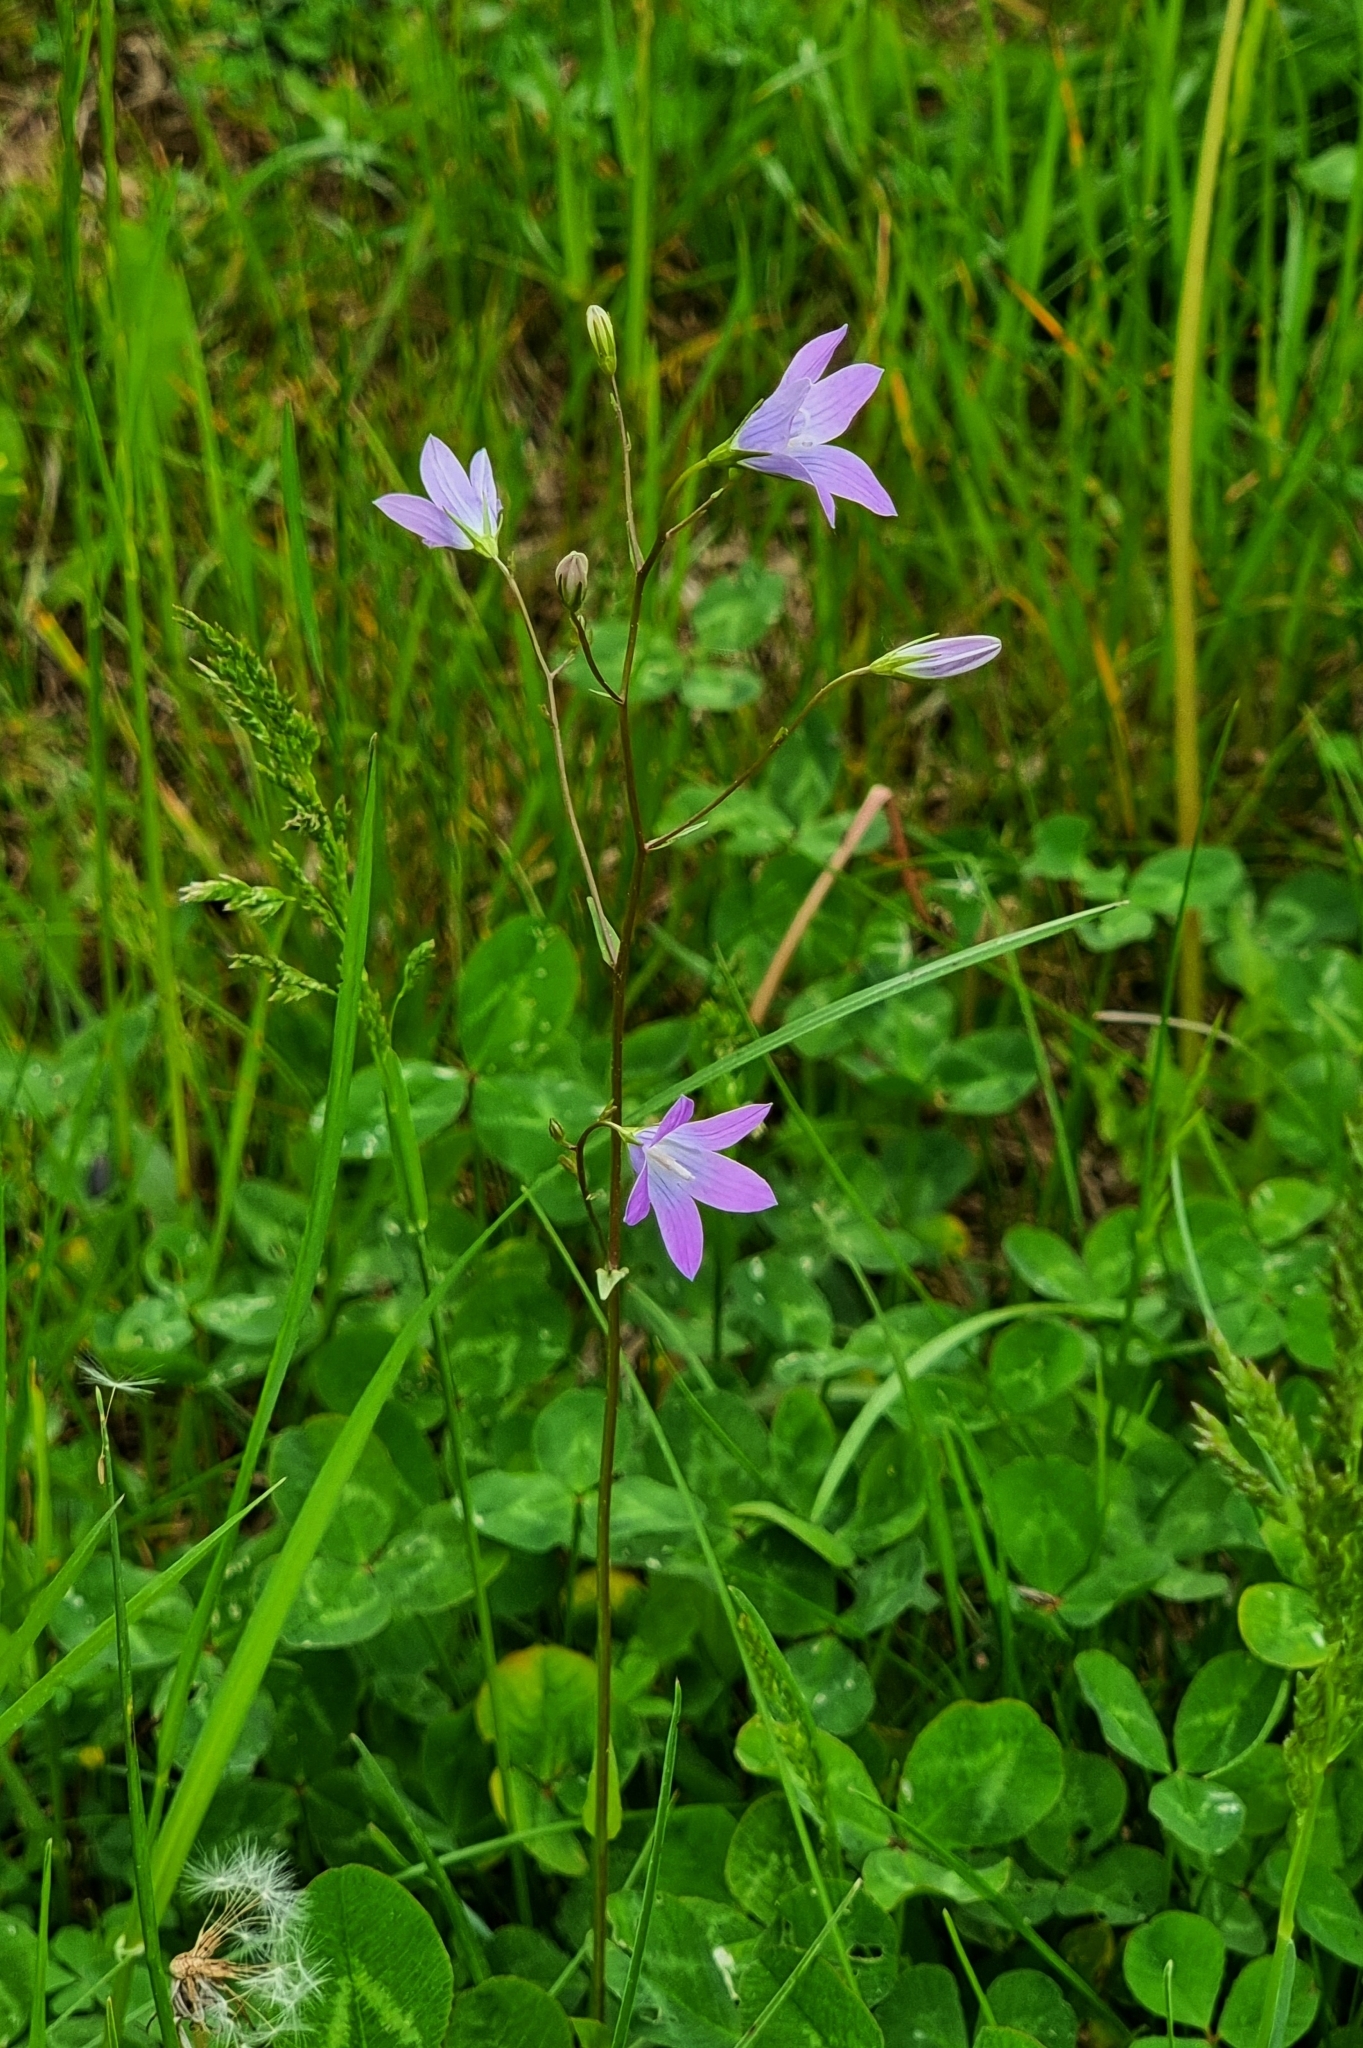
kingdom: Plantae
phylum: Tracheophyta
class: Magnoliopsida
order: Asterales
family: Campanulaceae
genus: Campanula
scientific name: Campanula patula
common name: Spreading bellflower
